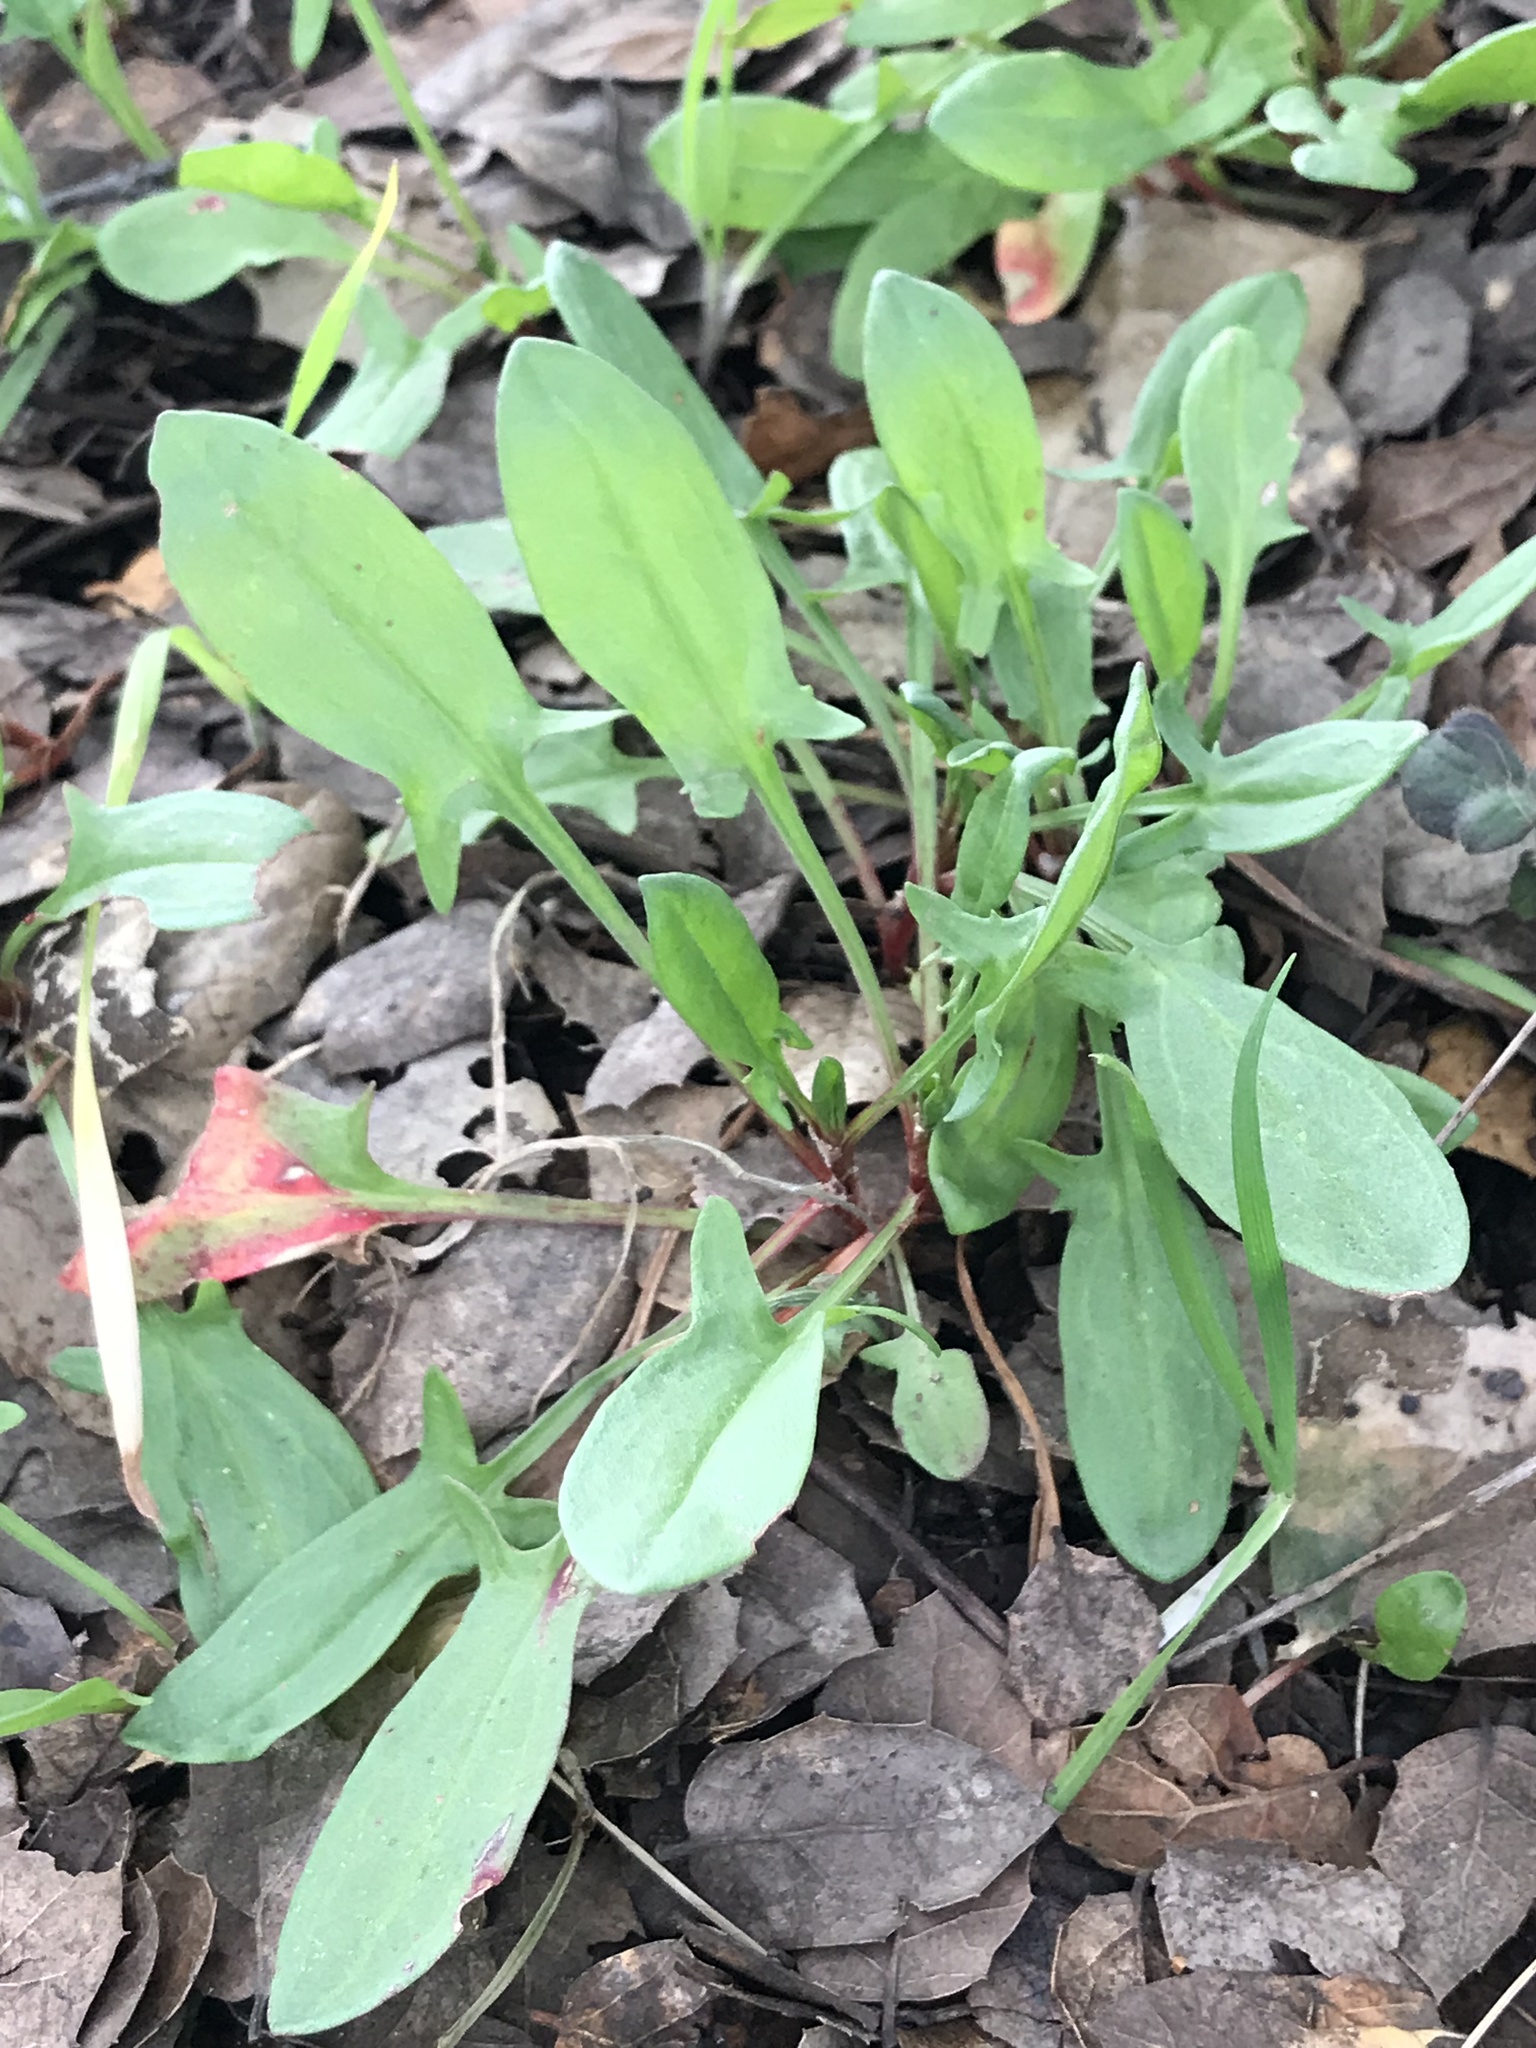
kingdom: Plantae
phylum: Tracheophyta
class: Magnoliopsida
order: Caryophyllales
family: Polygonaceae
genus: Rumex
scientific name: Rumex acetosella
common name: Common sheep sorrel
